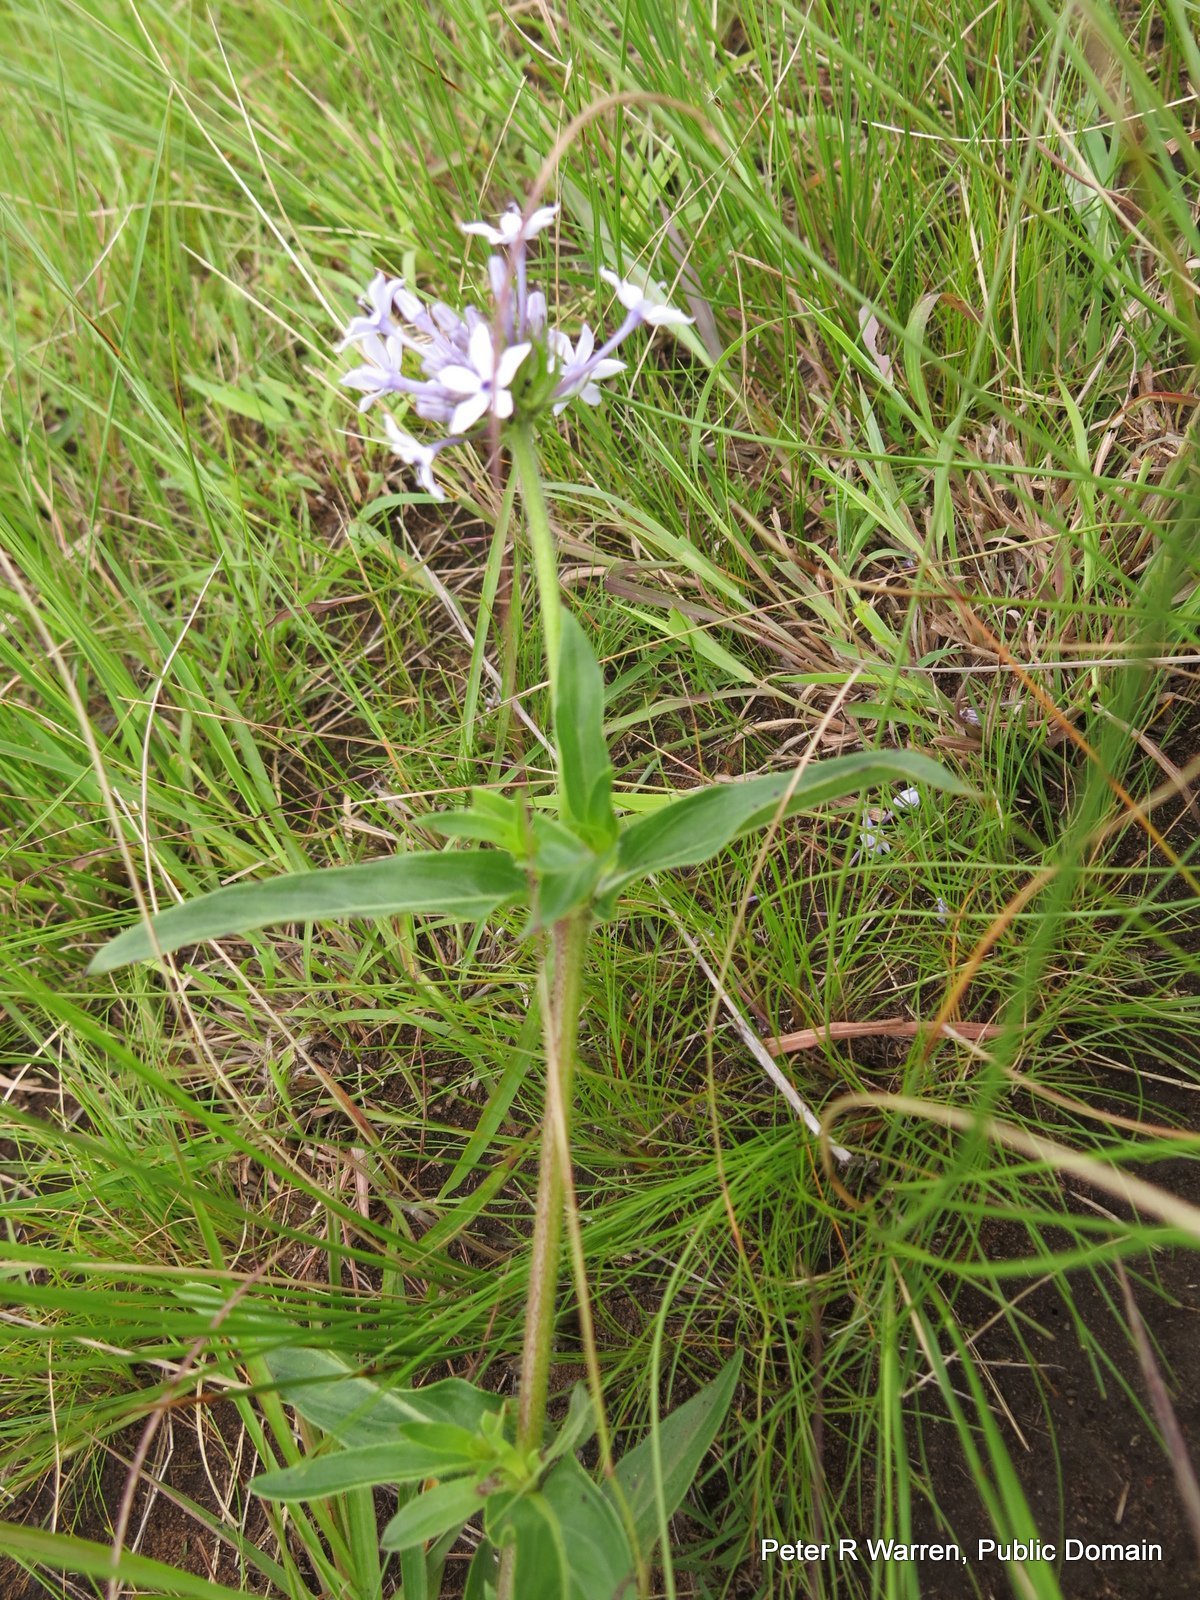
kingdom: Plantae
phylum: Tracheophyta
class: Magnoliopsida
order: Gentianales
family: Rubiaceae
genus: Pentanisia
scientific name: Pentanisia angustifolia
